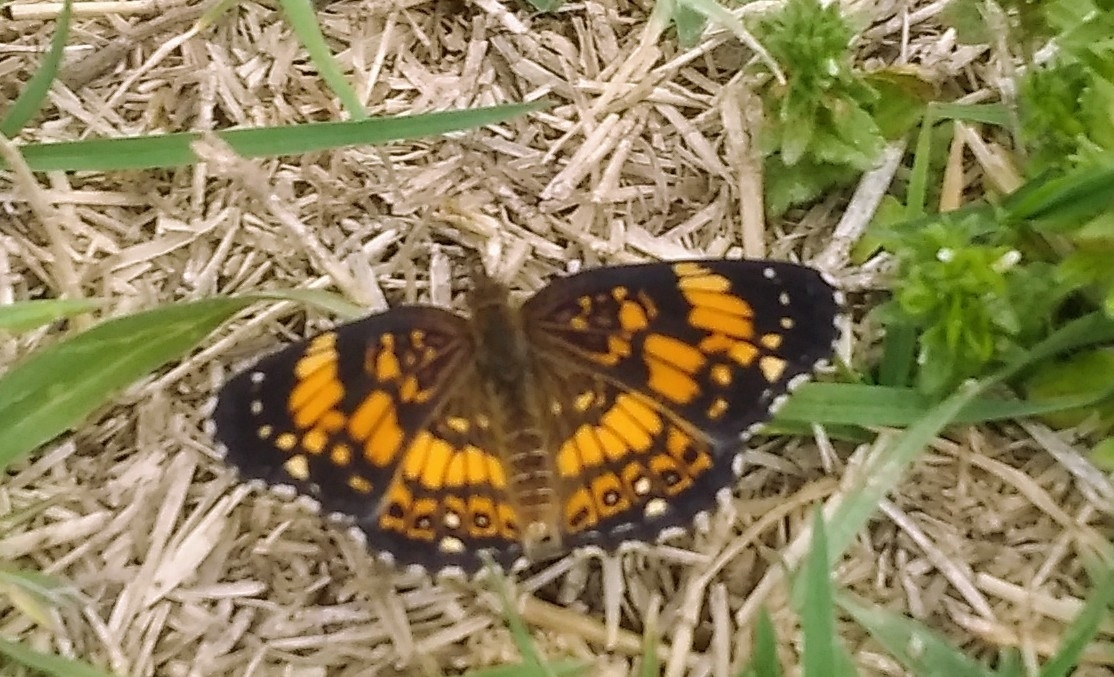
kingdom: Animalia
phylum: Arthropoda
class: Insecta
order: Lepidoptera
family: Nymphalidae
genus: Chlosyne
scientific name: Chlosyne nycteis
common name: Silvery checkerspot
